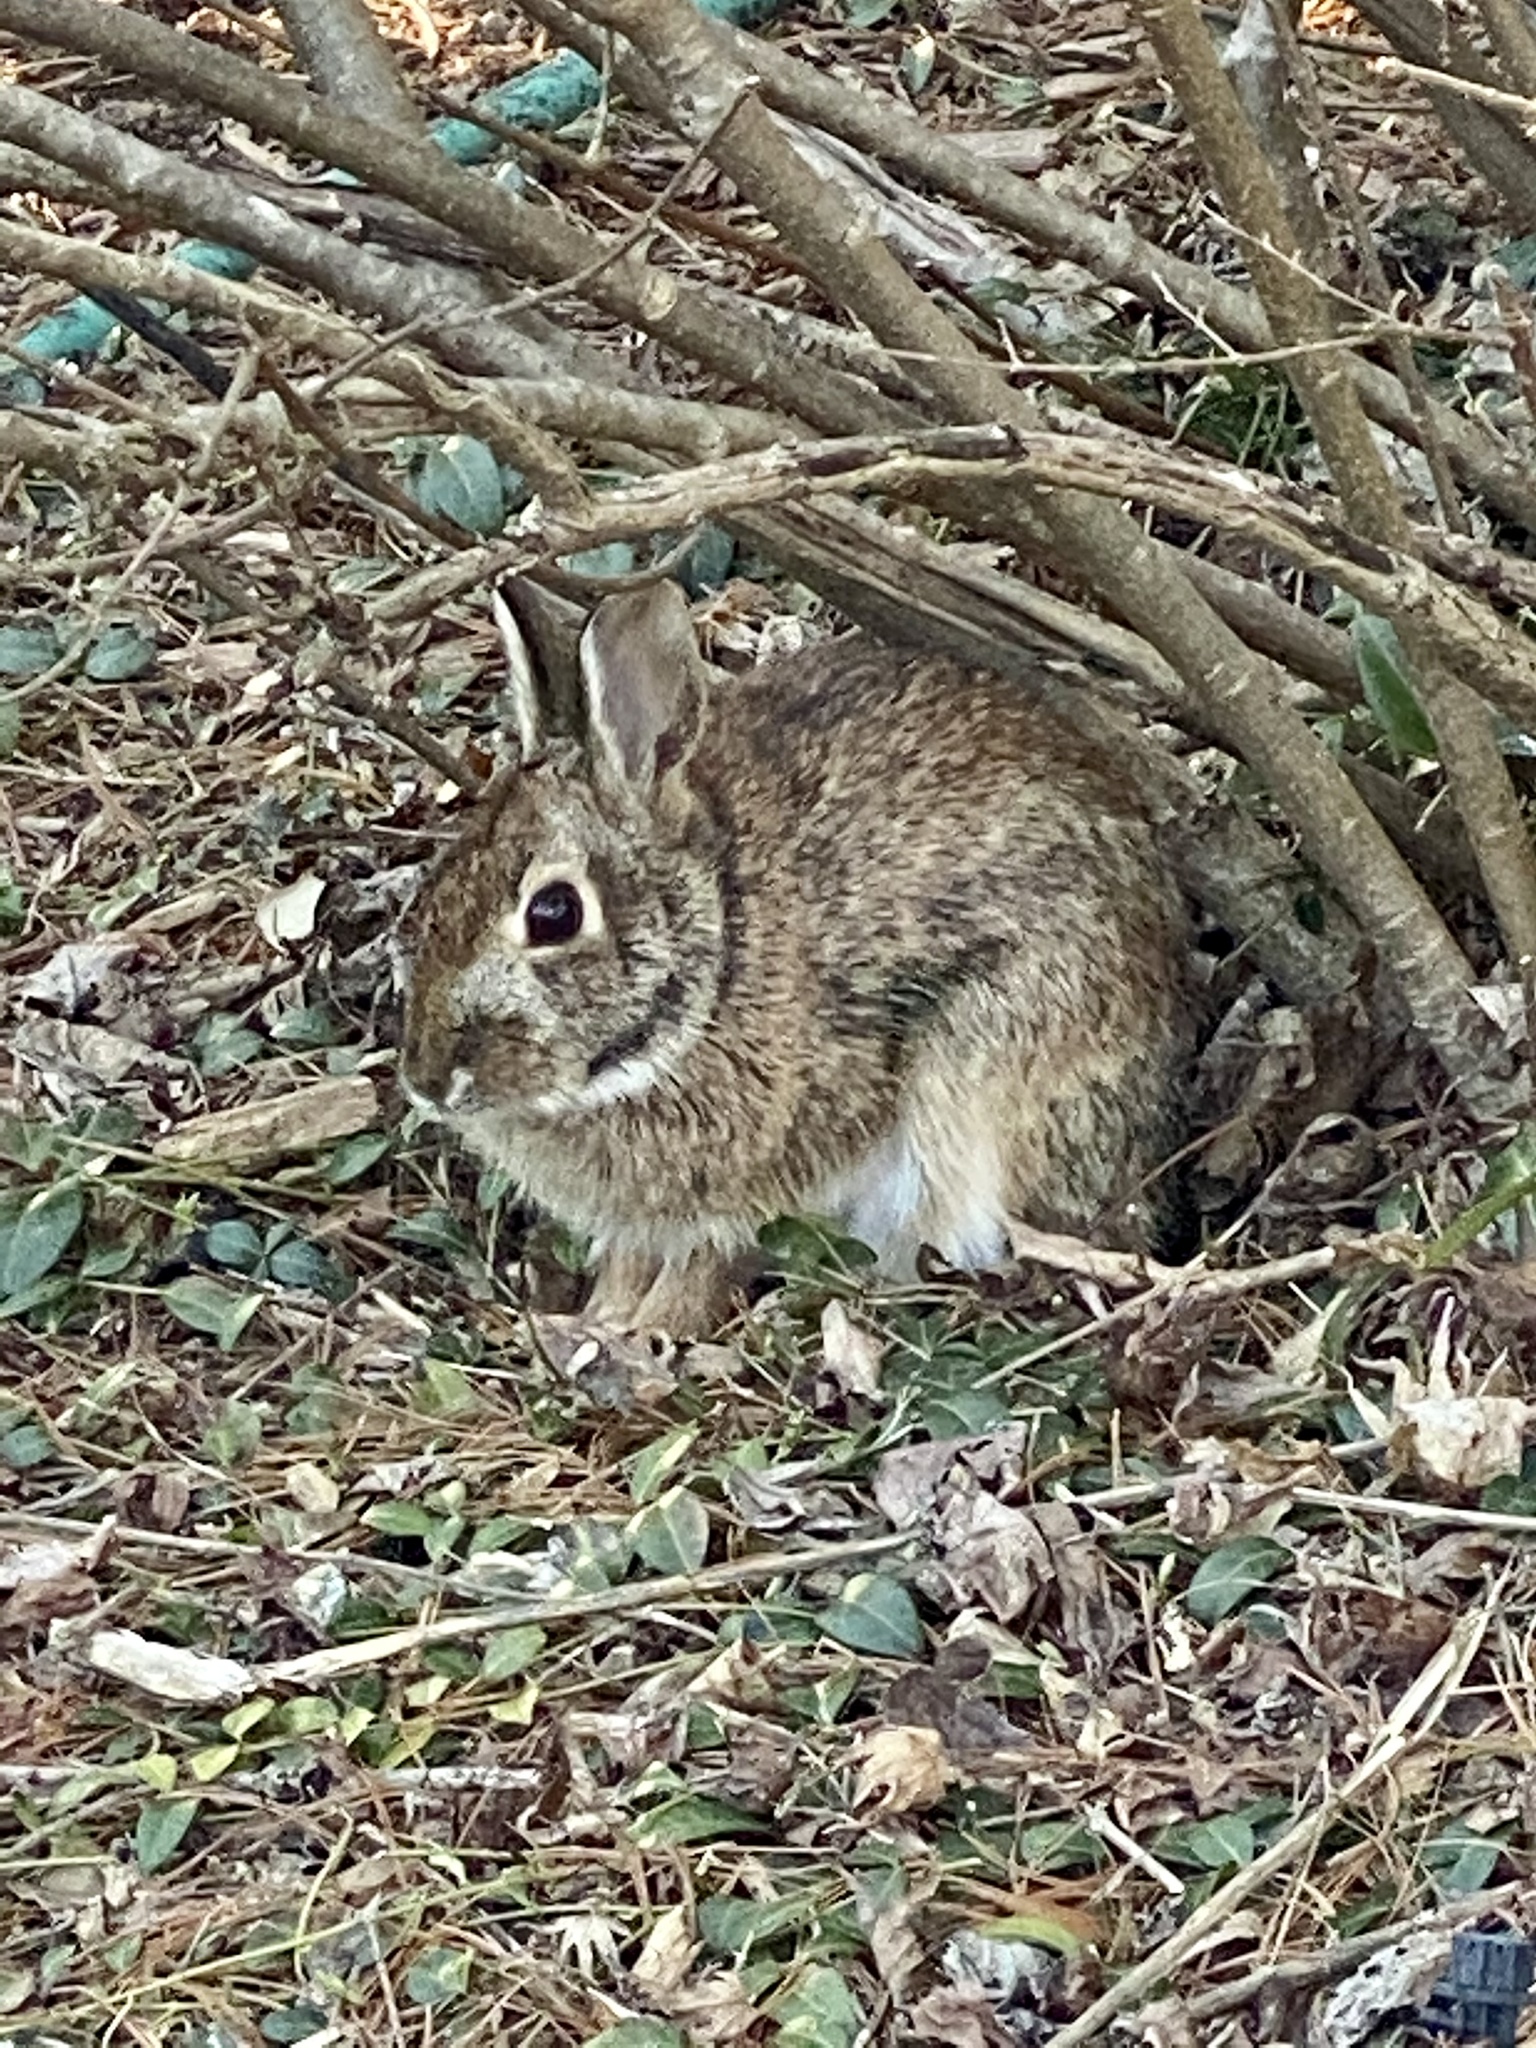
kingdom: Animalia
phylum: Chordata
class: Mammalia
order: Lagomorpha
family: Leporidae
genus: Sylvilagus
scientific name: Sylvilagus floridanus
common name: Eastern cottontail
